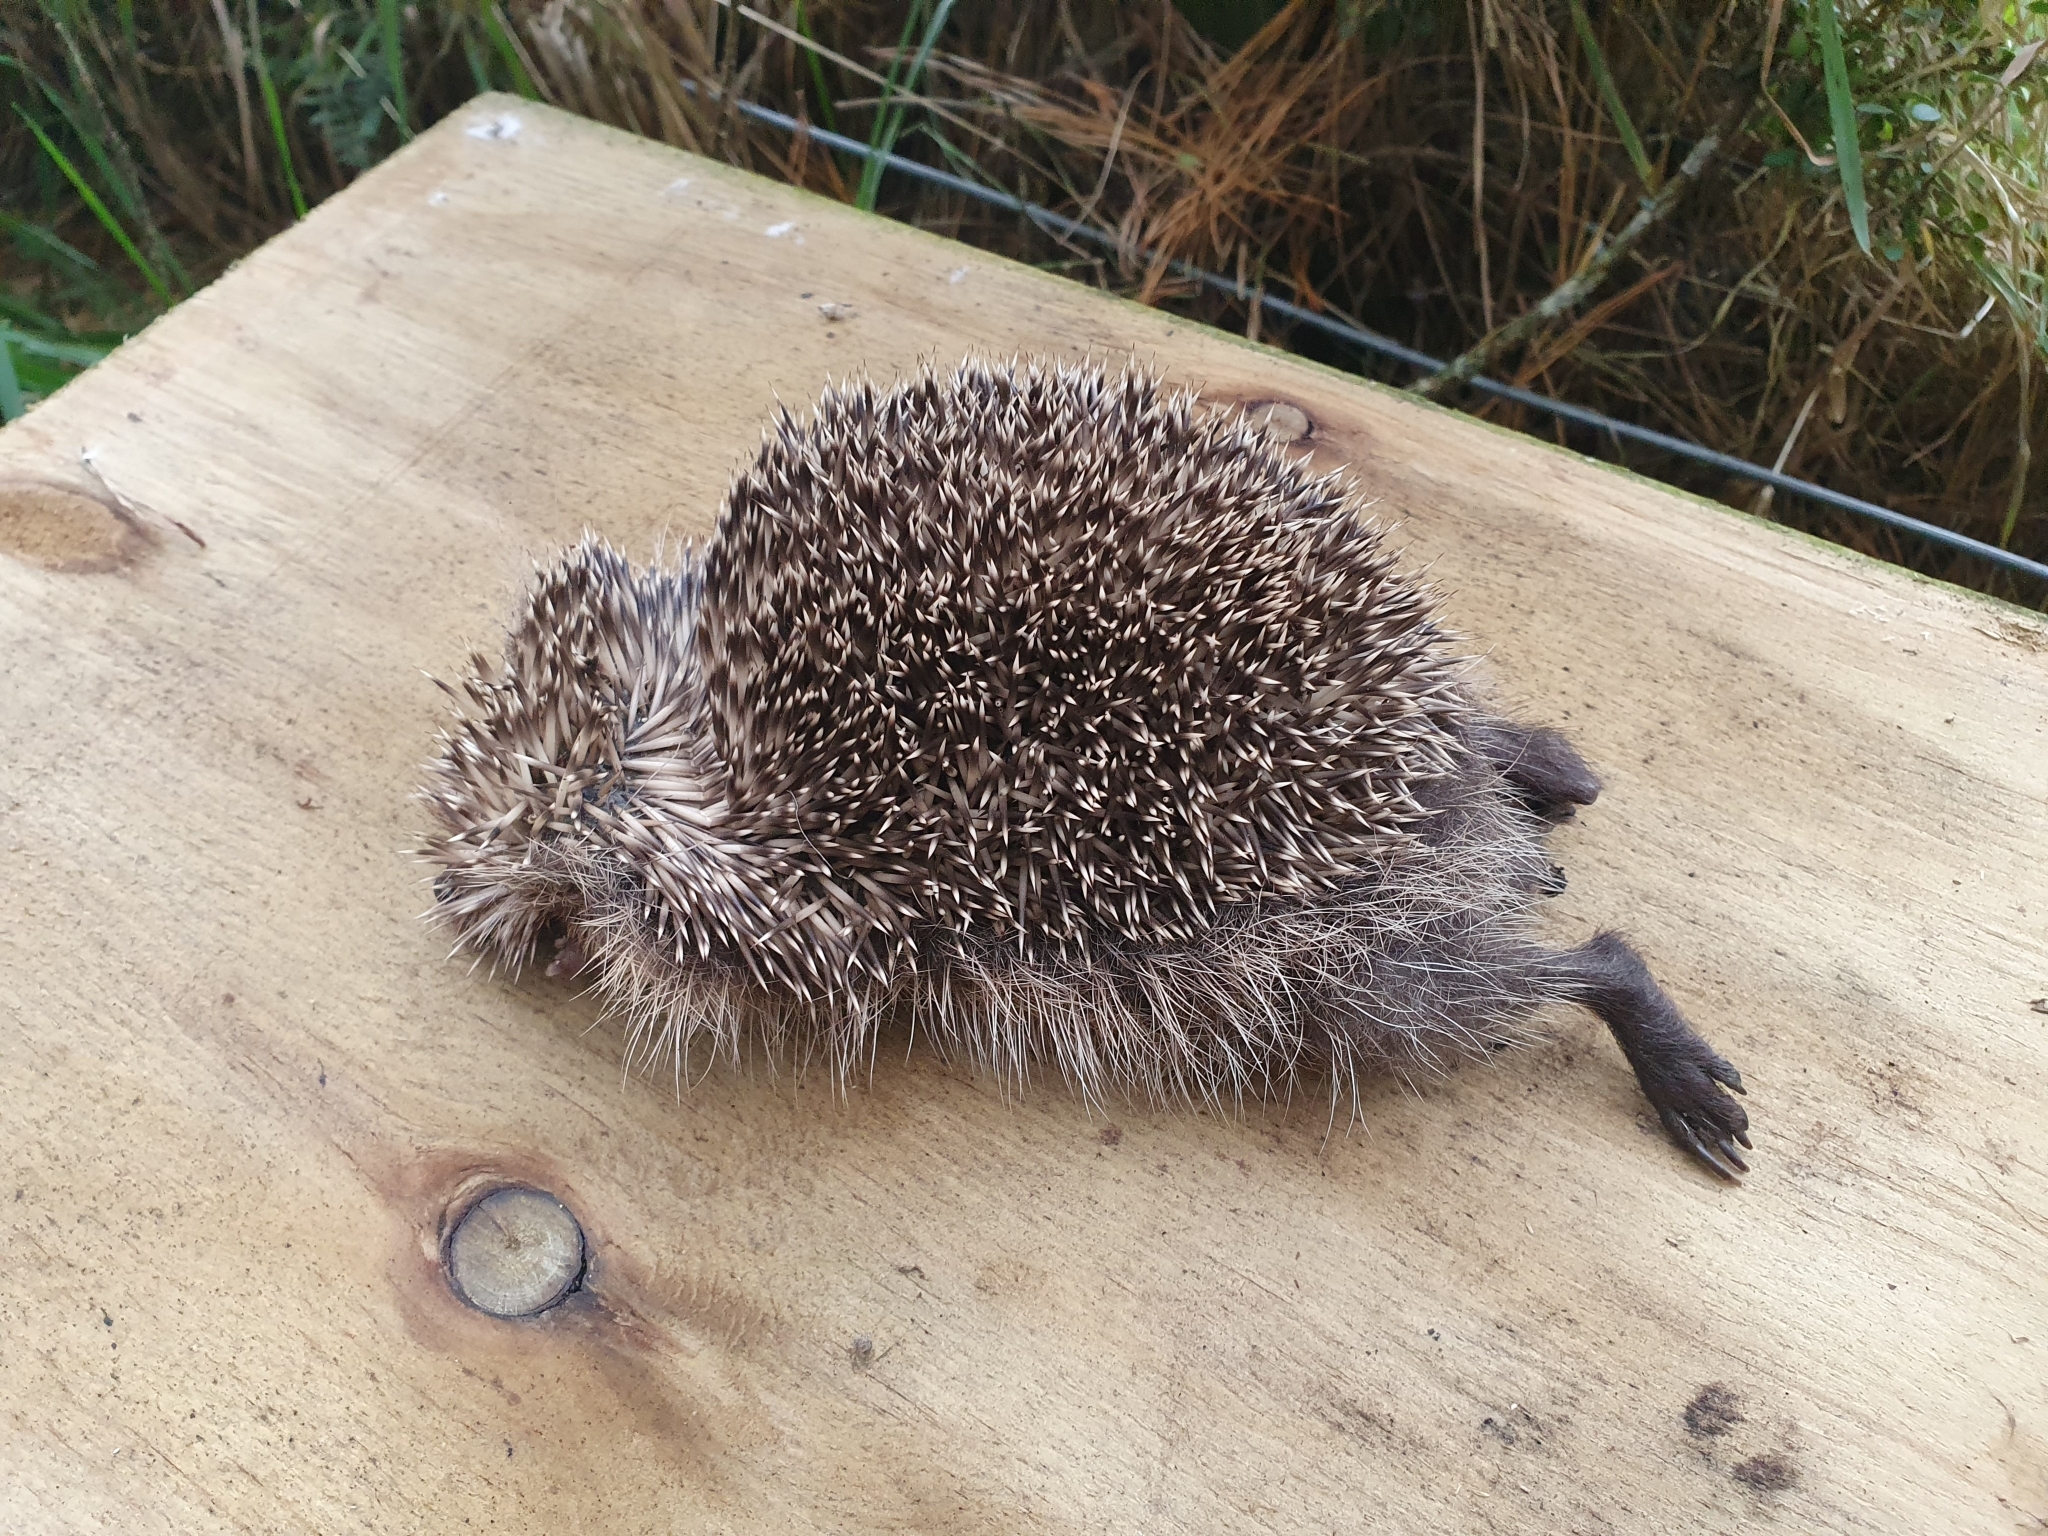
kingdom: Animalia
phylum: Chordata
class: Mammalia
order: Erinaceomorpha
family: Erinaceidae
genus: Erinaceus
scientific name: Erinaceus europaeus
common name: West european hedgehog
